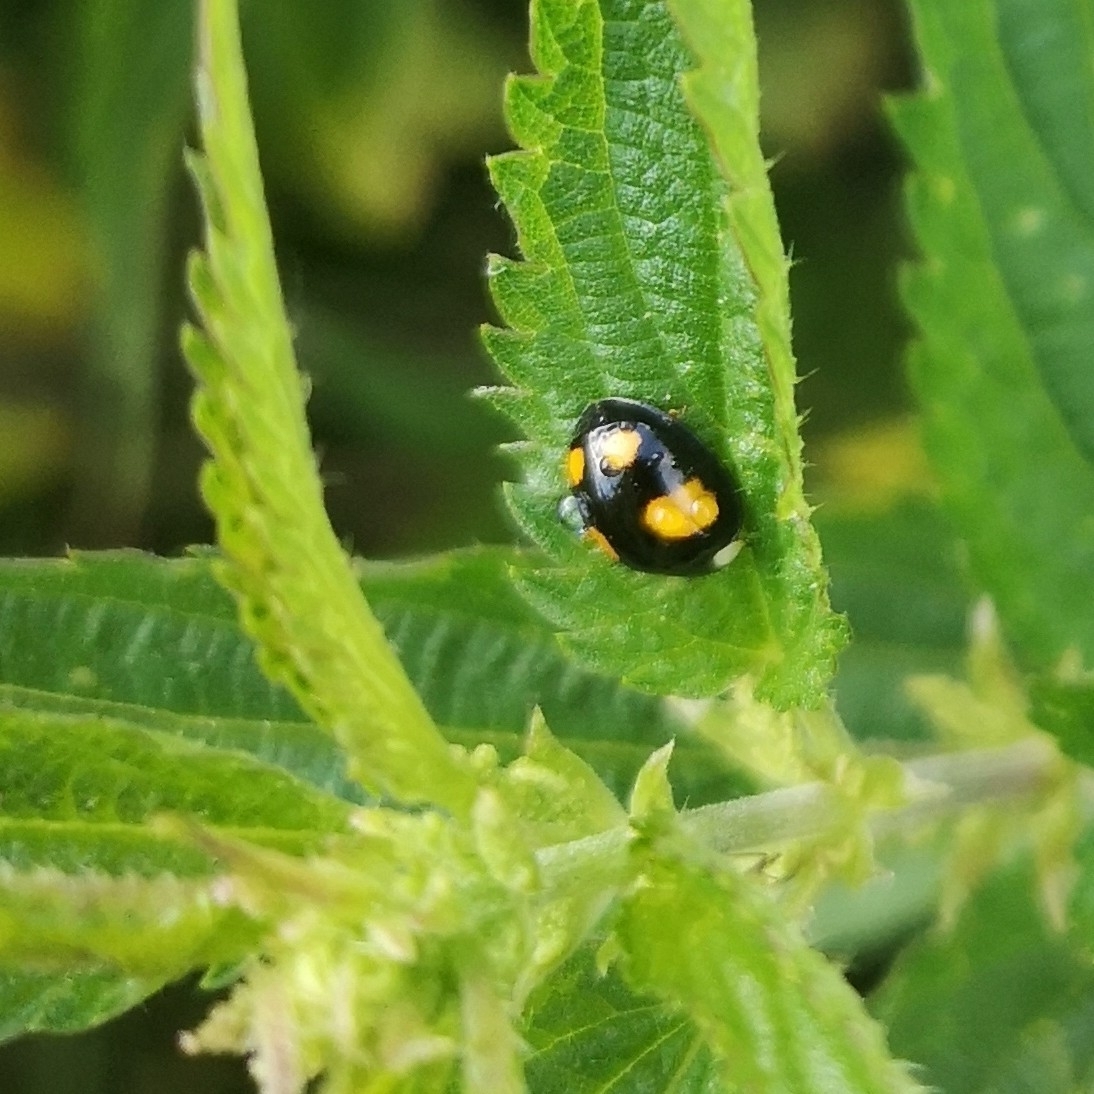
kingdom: Animalia
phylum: Arthropoda
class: Insecta
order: Coleoptera
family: Coccinellidae
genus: Harmonia
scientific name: Harmonia axyridis
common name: Harlequin ladybird
